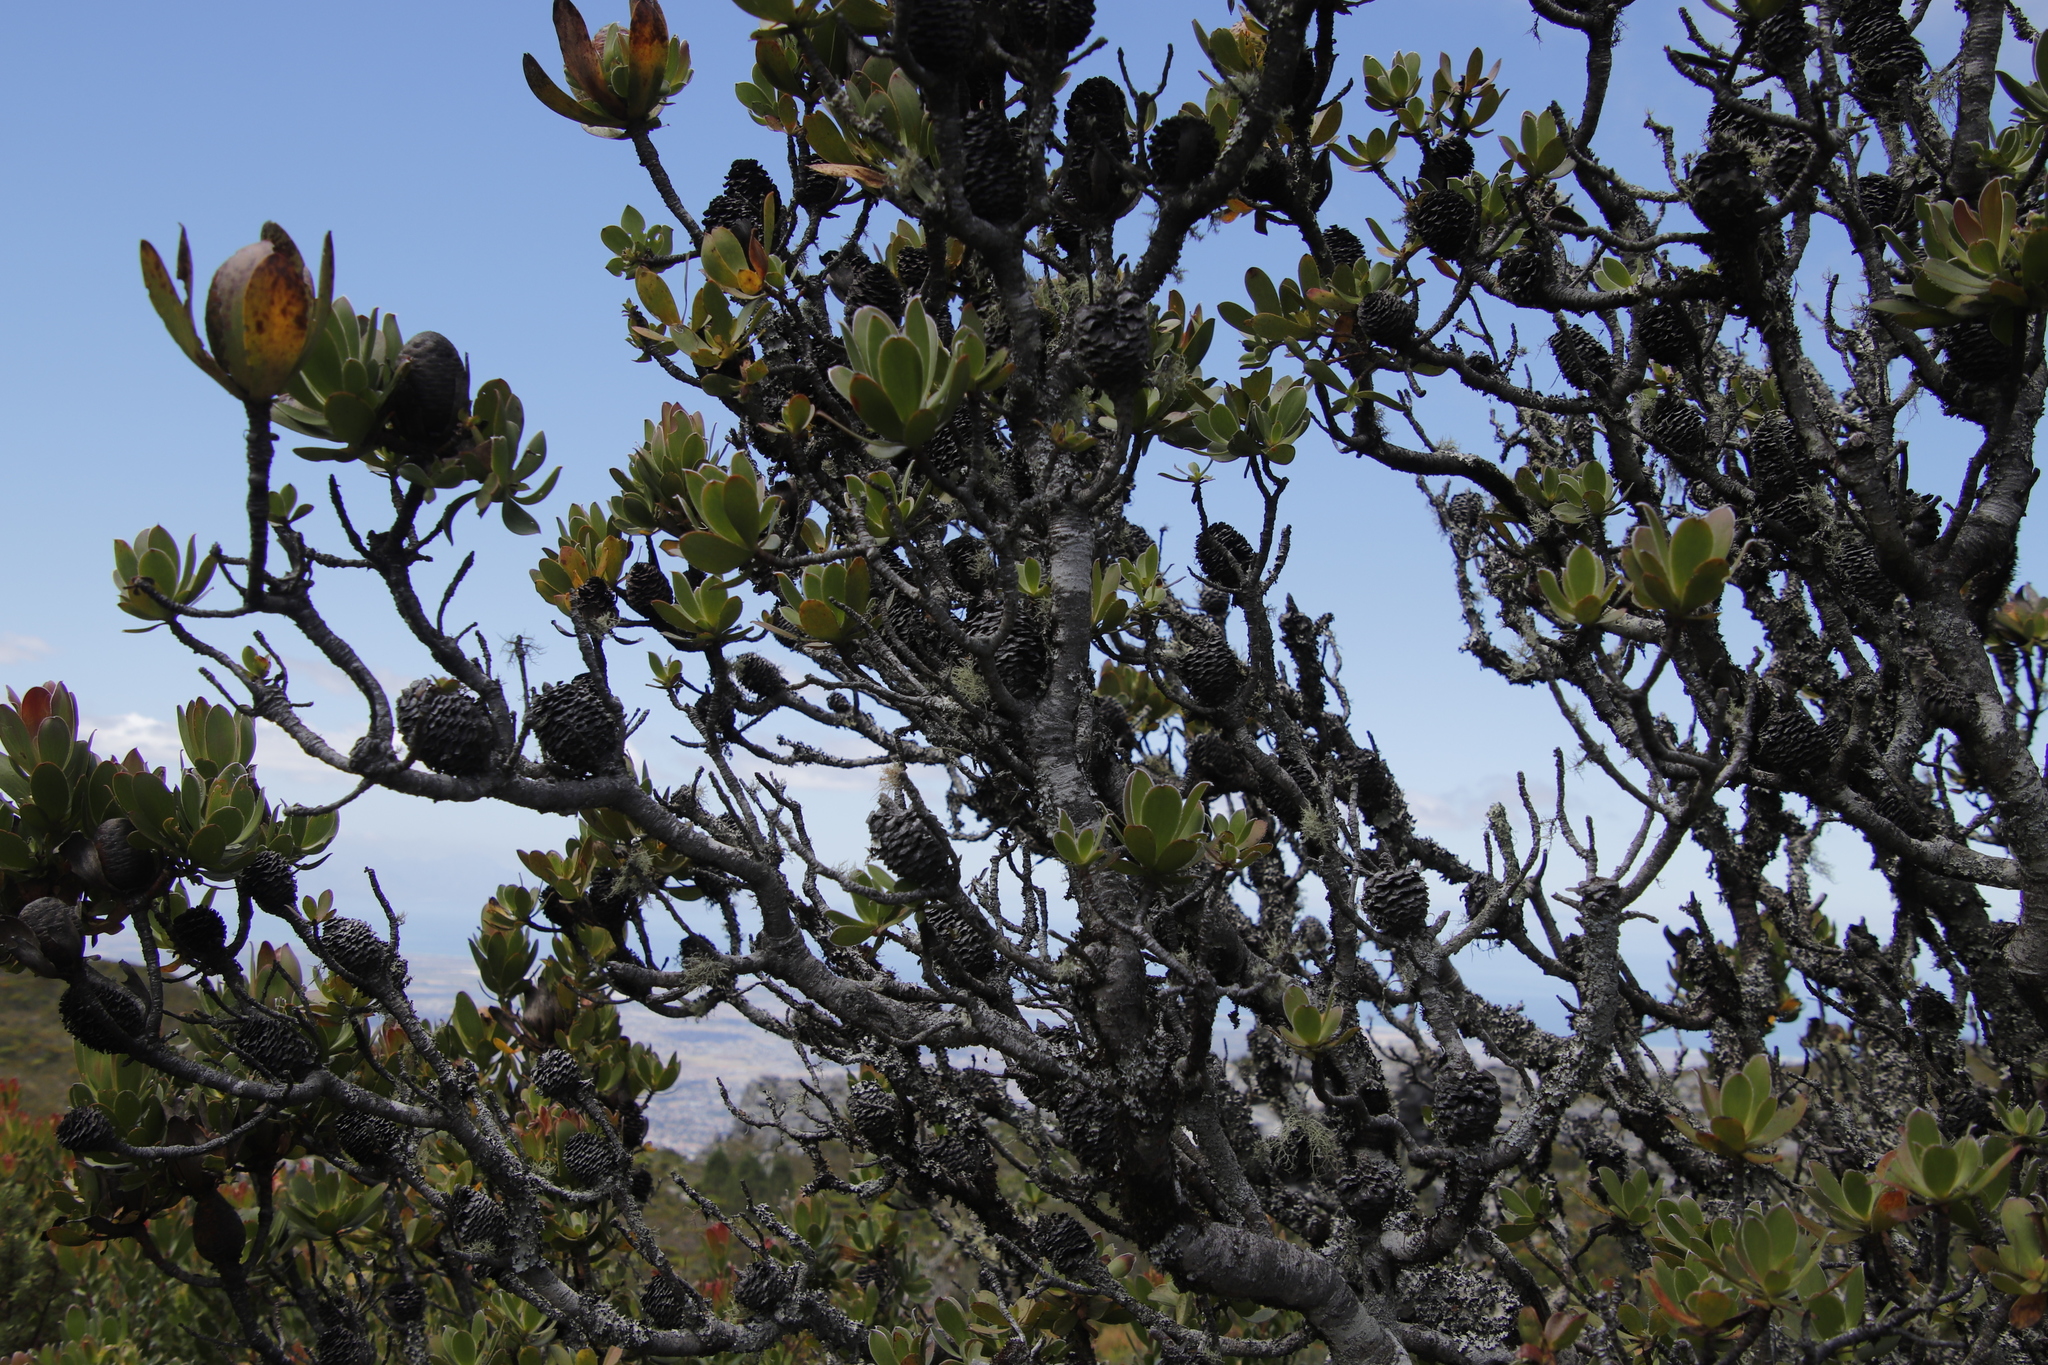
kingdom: Plantae
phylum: Tracheophyta
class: Magnoliopsida
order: Proteales
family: Proteaceae
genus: Leucadendron
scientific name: Leucadendron strobilinum
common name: Mountain rose
